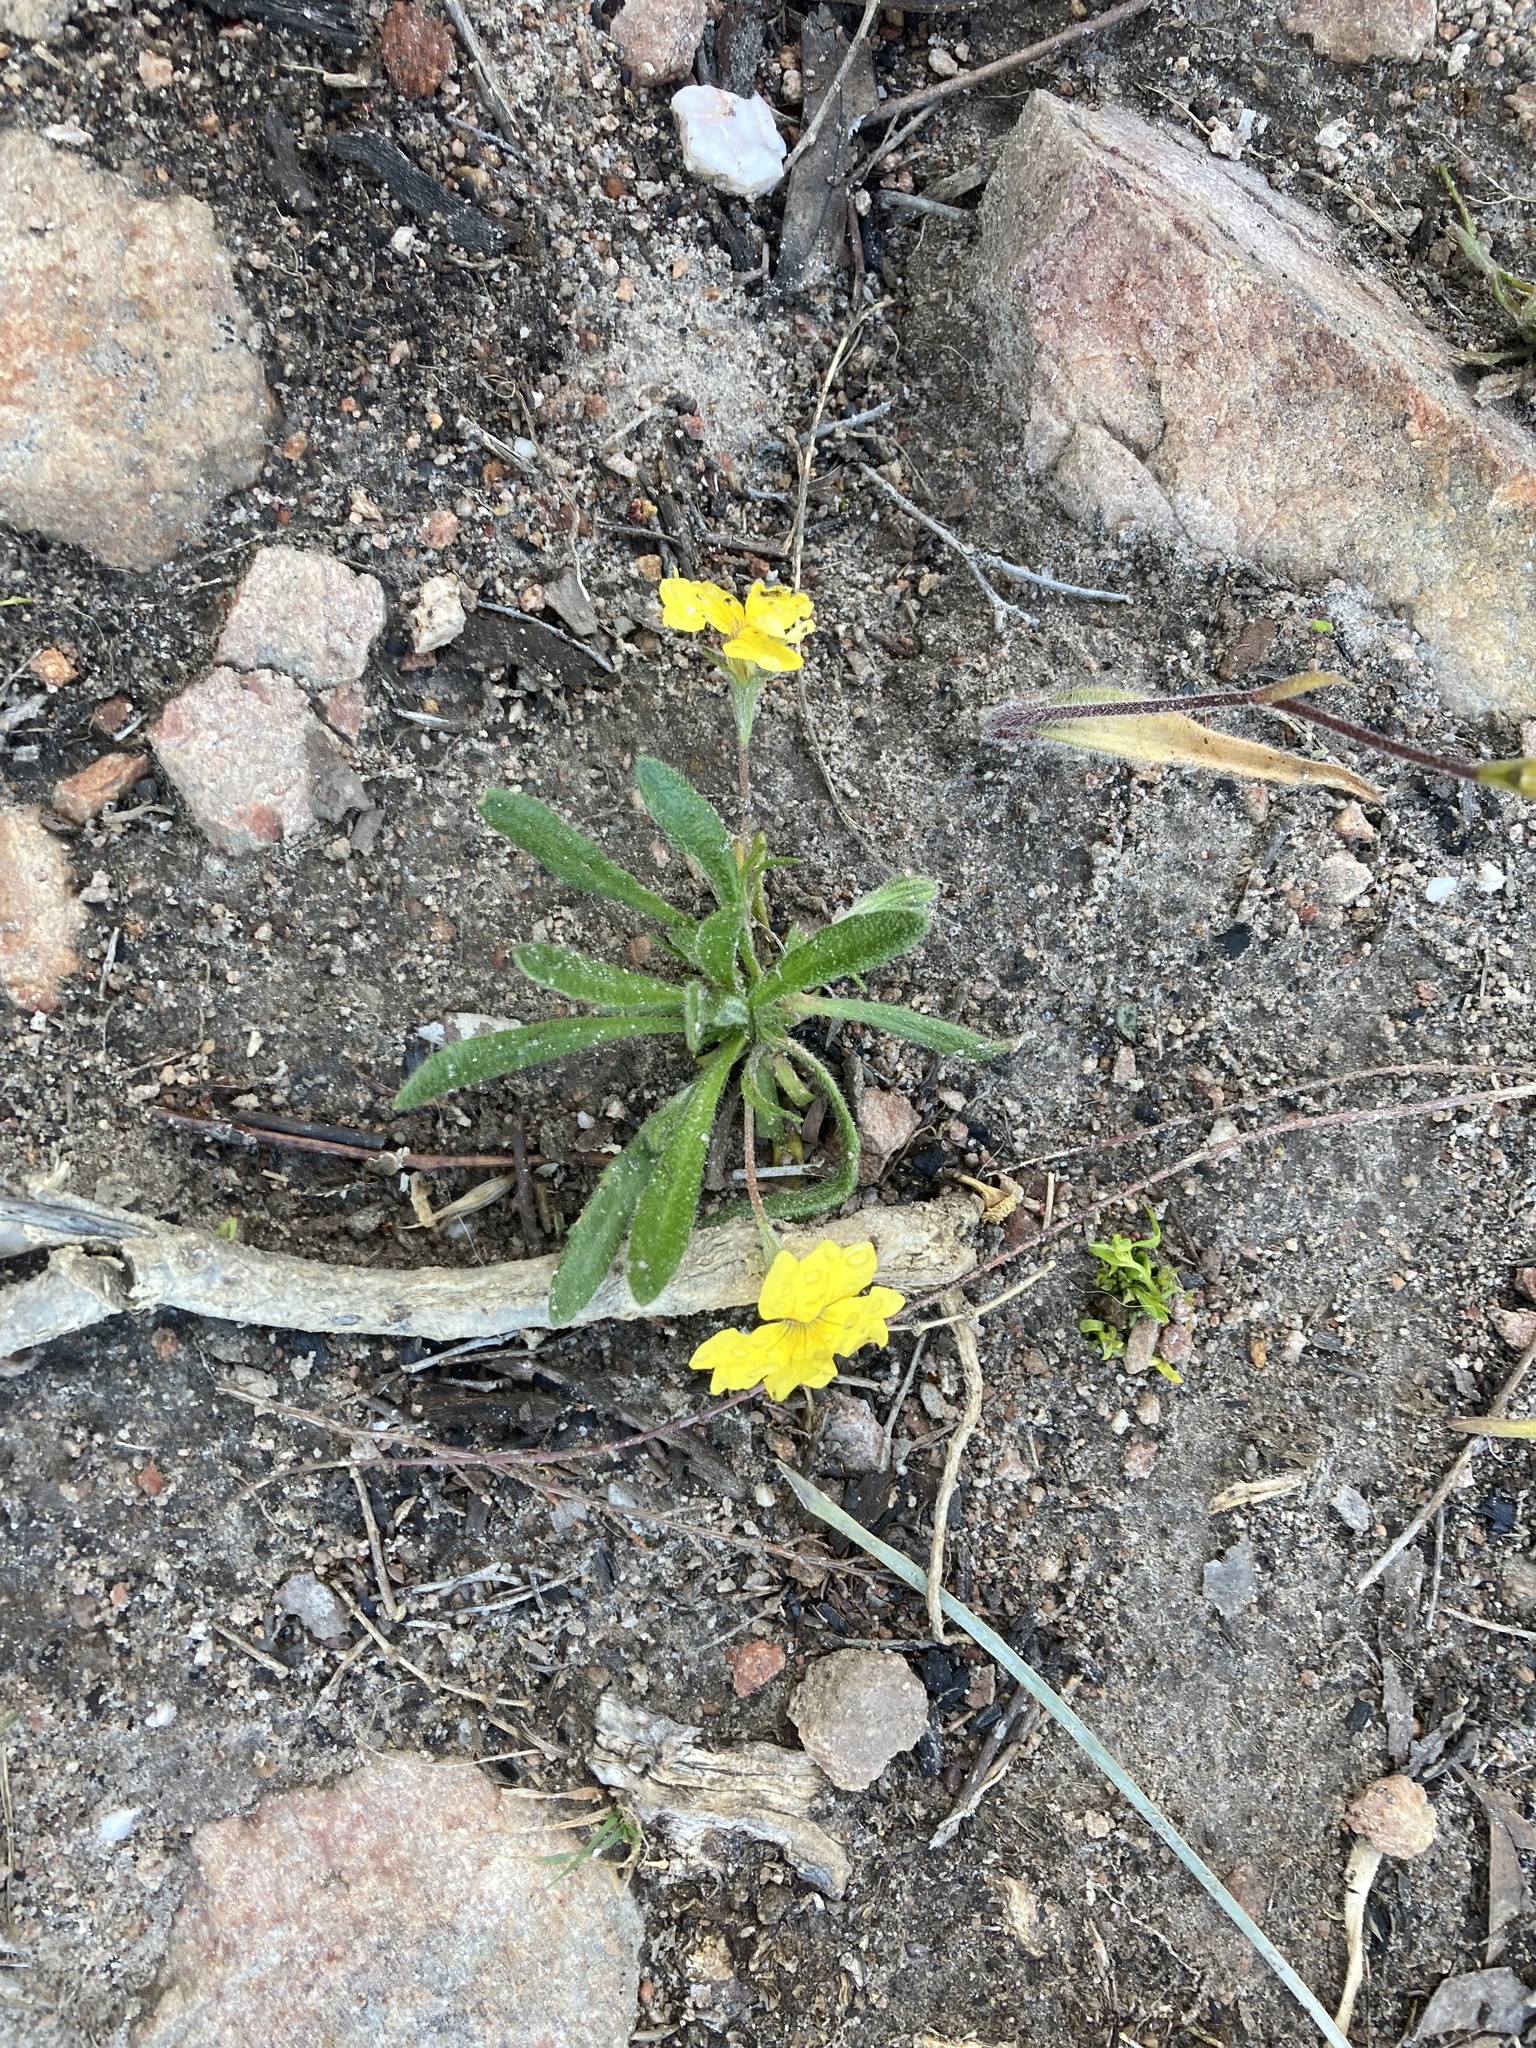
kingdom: Plantae
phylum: Tracheophyta
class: Magnoliopsida
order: Asterales
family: Goodeniaceae
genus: Goodenia
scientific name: Goodenia geniculata
